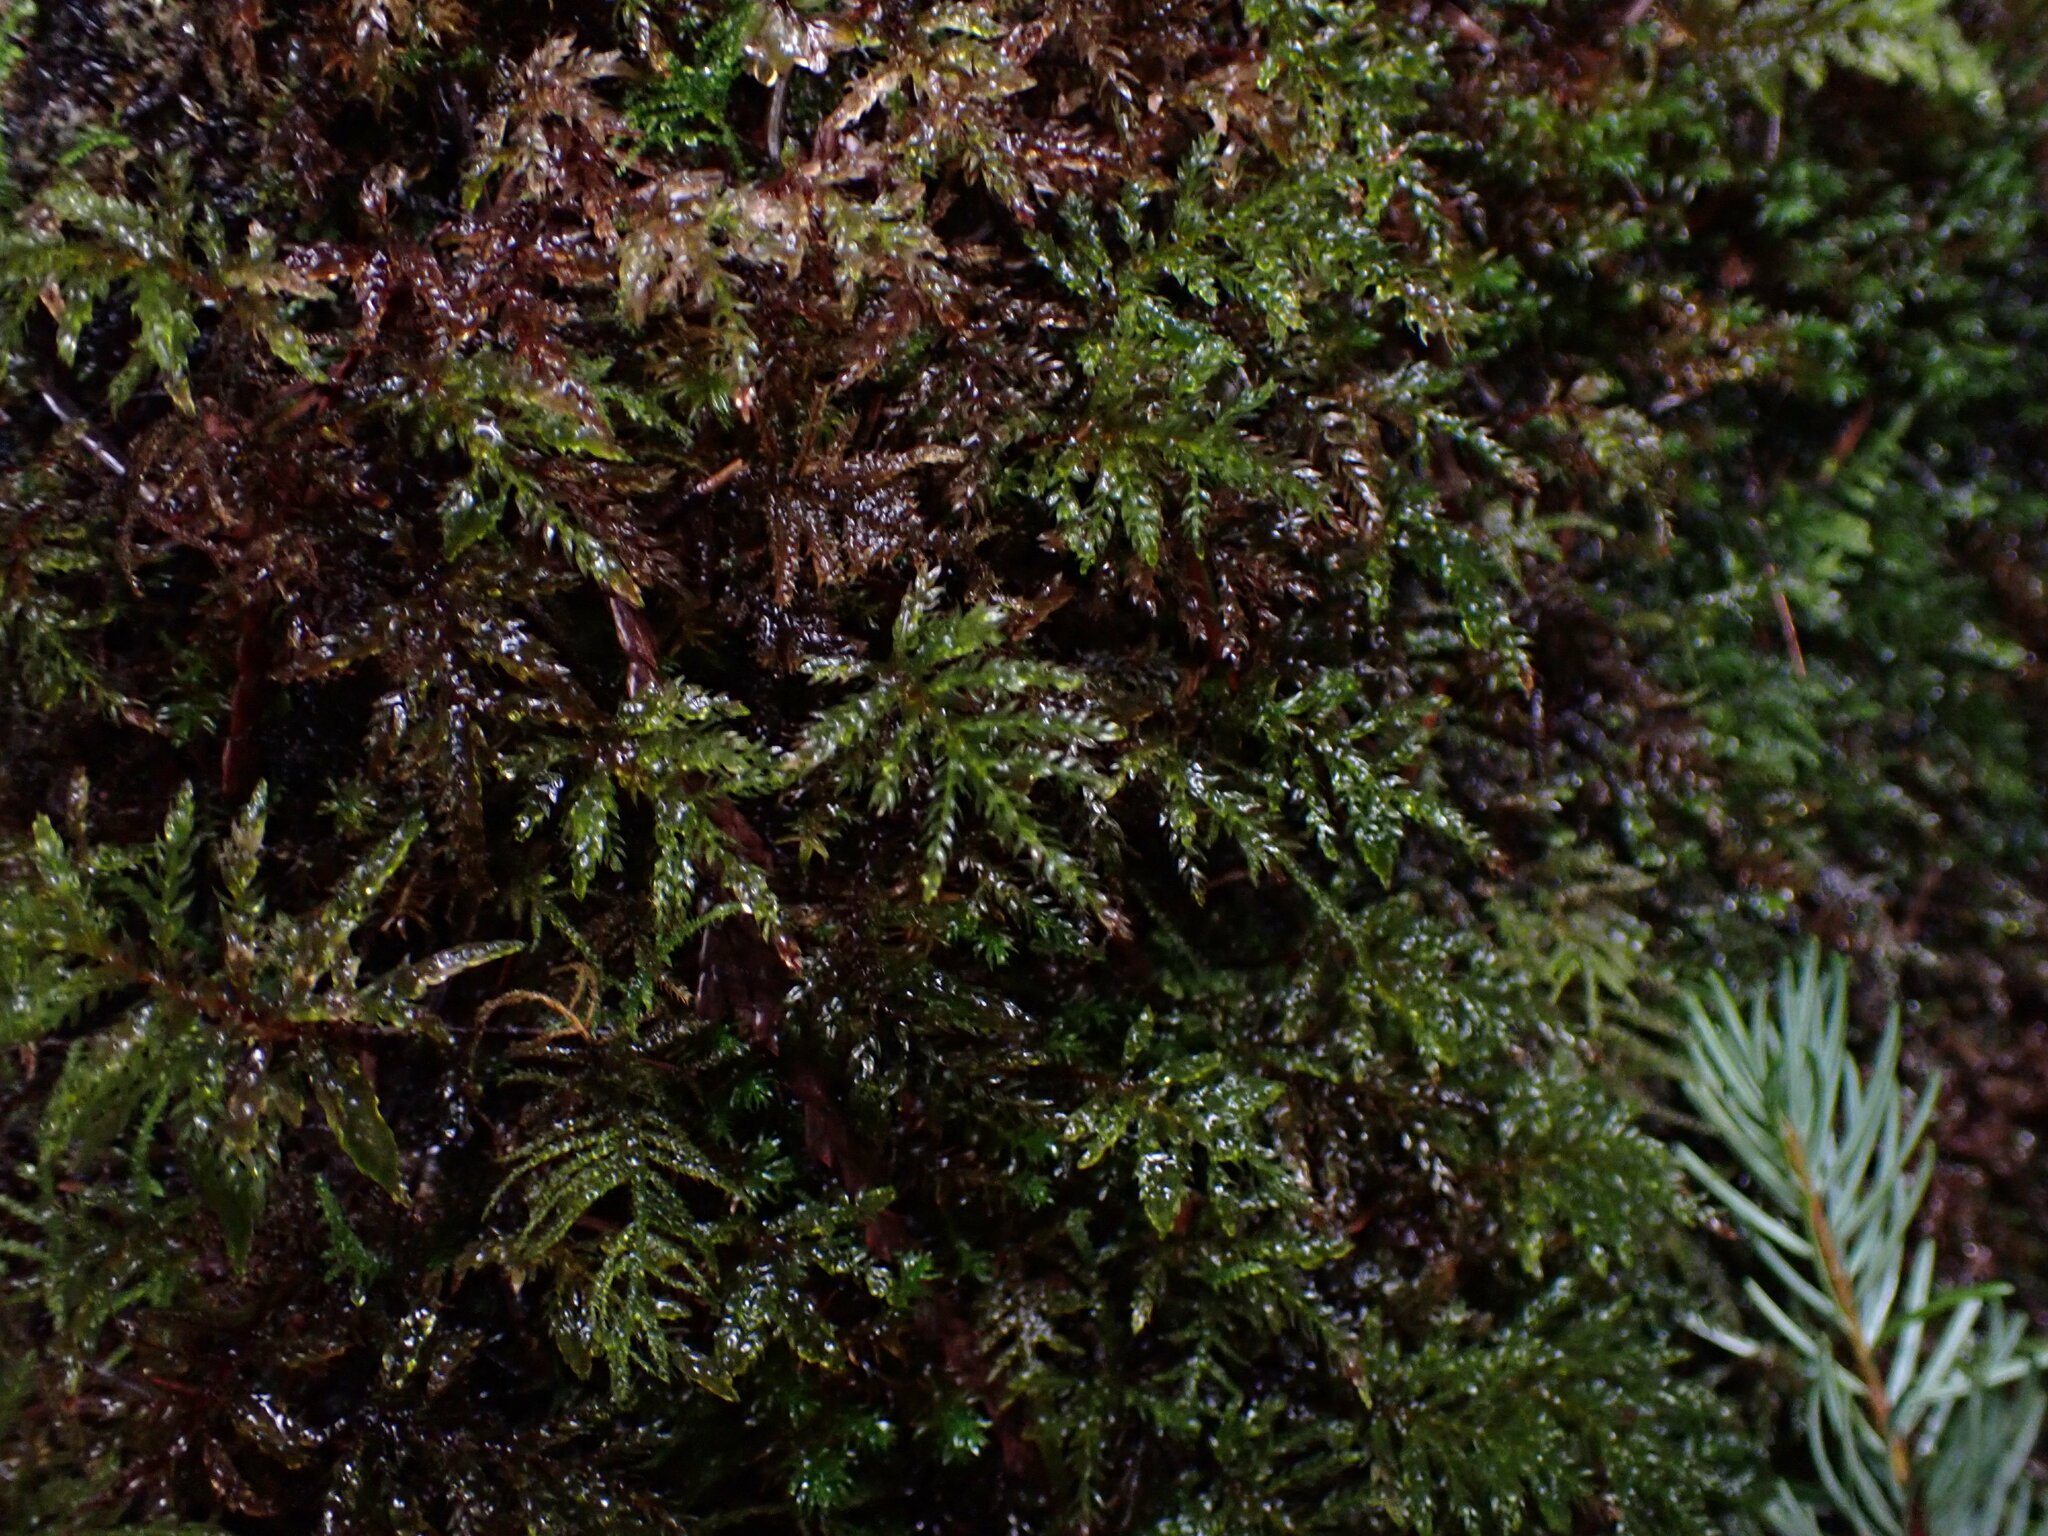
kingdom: Plantae
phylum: Bryophyta
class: Bryopsida
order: Bryales
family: Mniaceae
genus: Leucolepis
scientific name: Leucolepis acanthoneura
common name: Leucolepis umbrella moss
